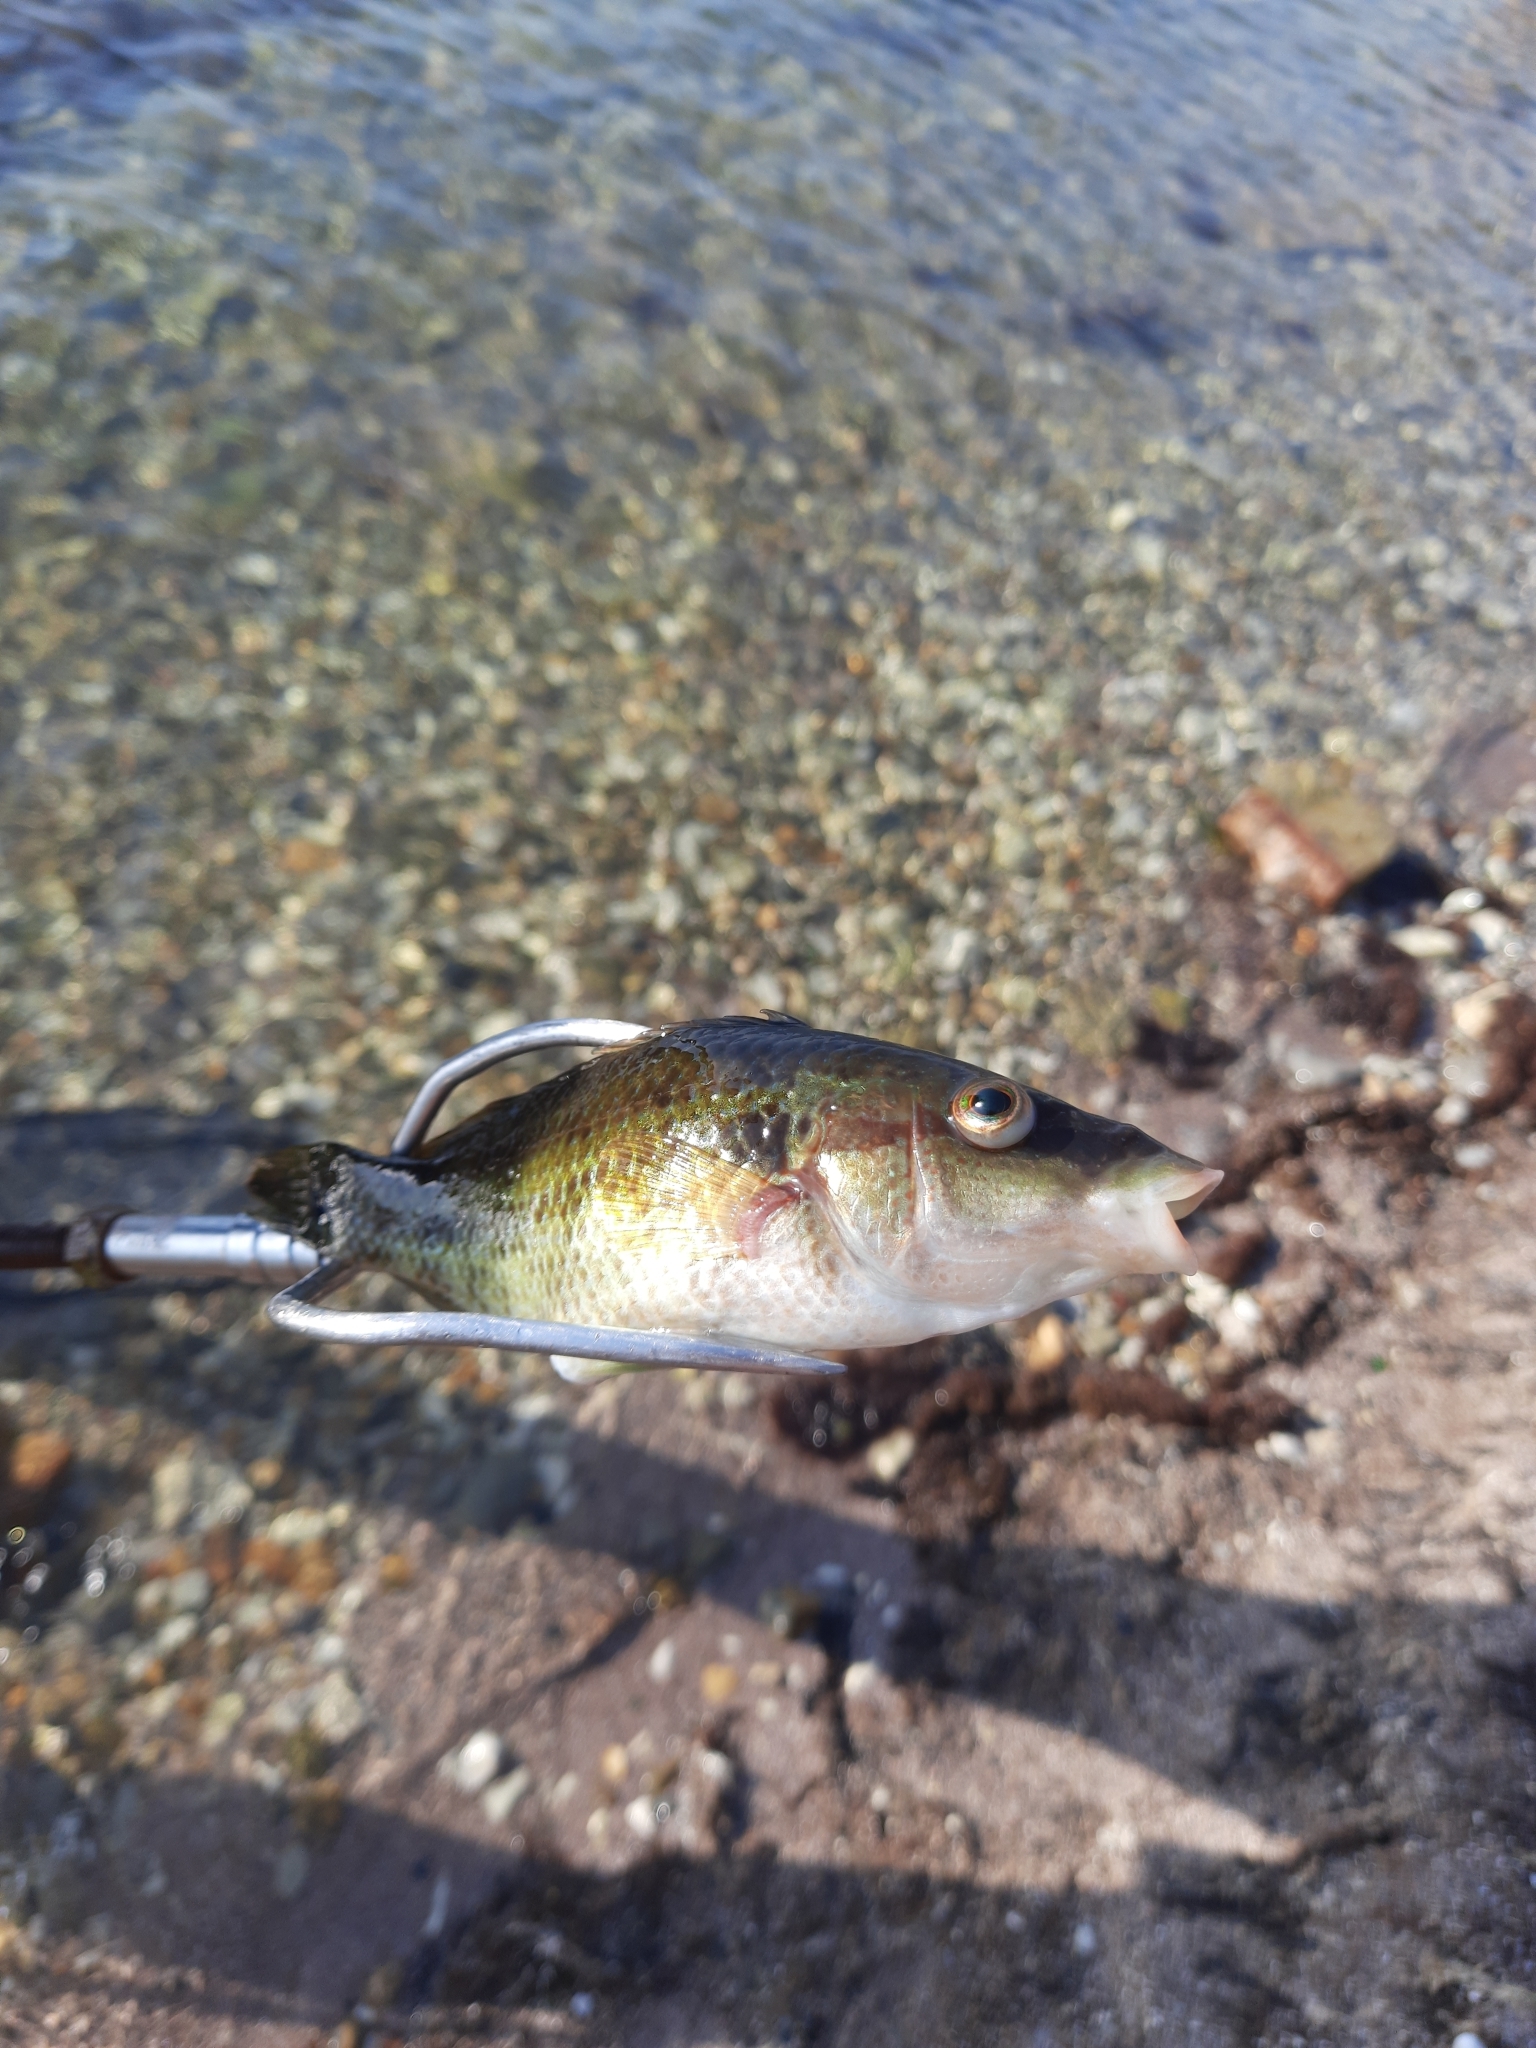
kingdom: Animalia
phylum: Chordata
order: Perciformes
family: Labridae
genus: Symphodus
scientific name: Symphodus tinca
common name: Peacock wrasse
